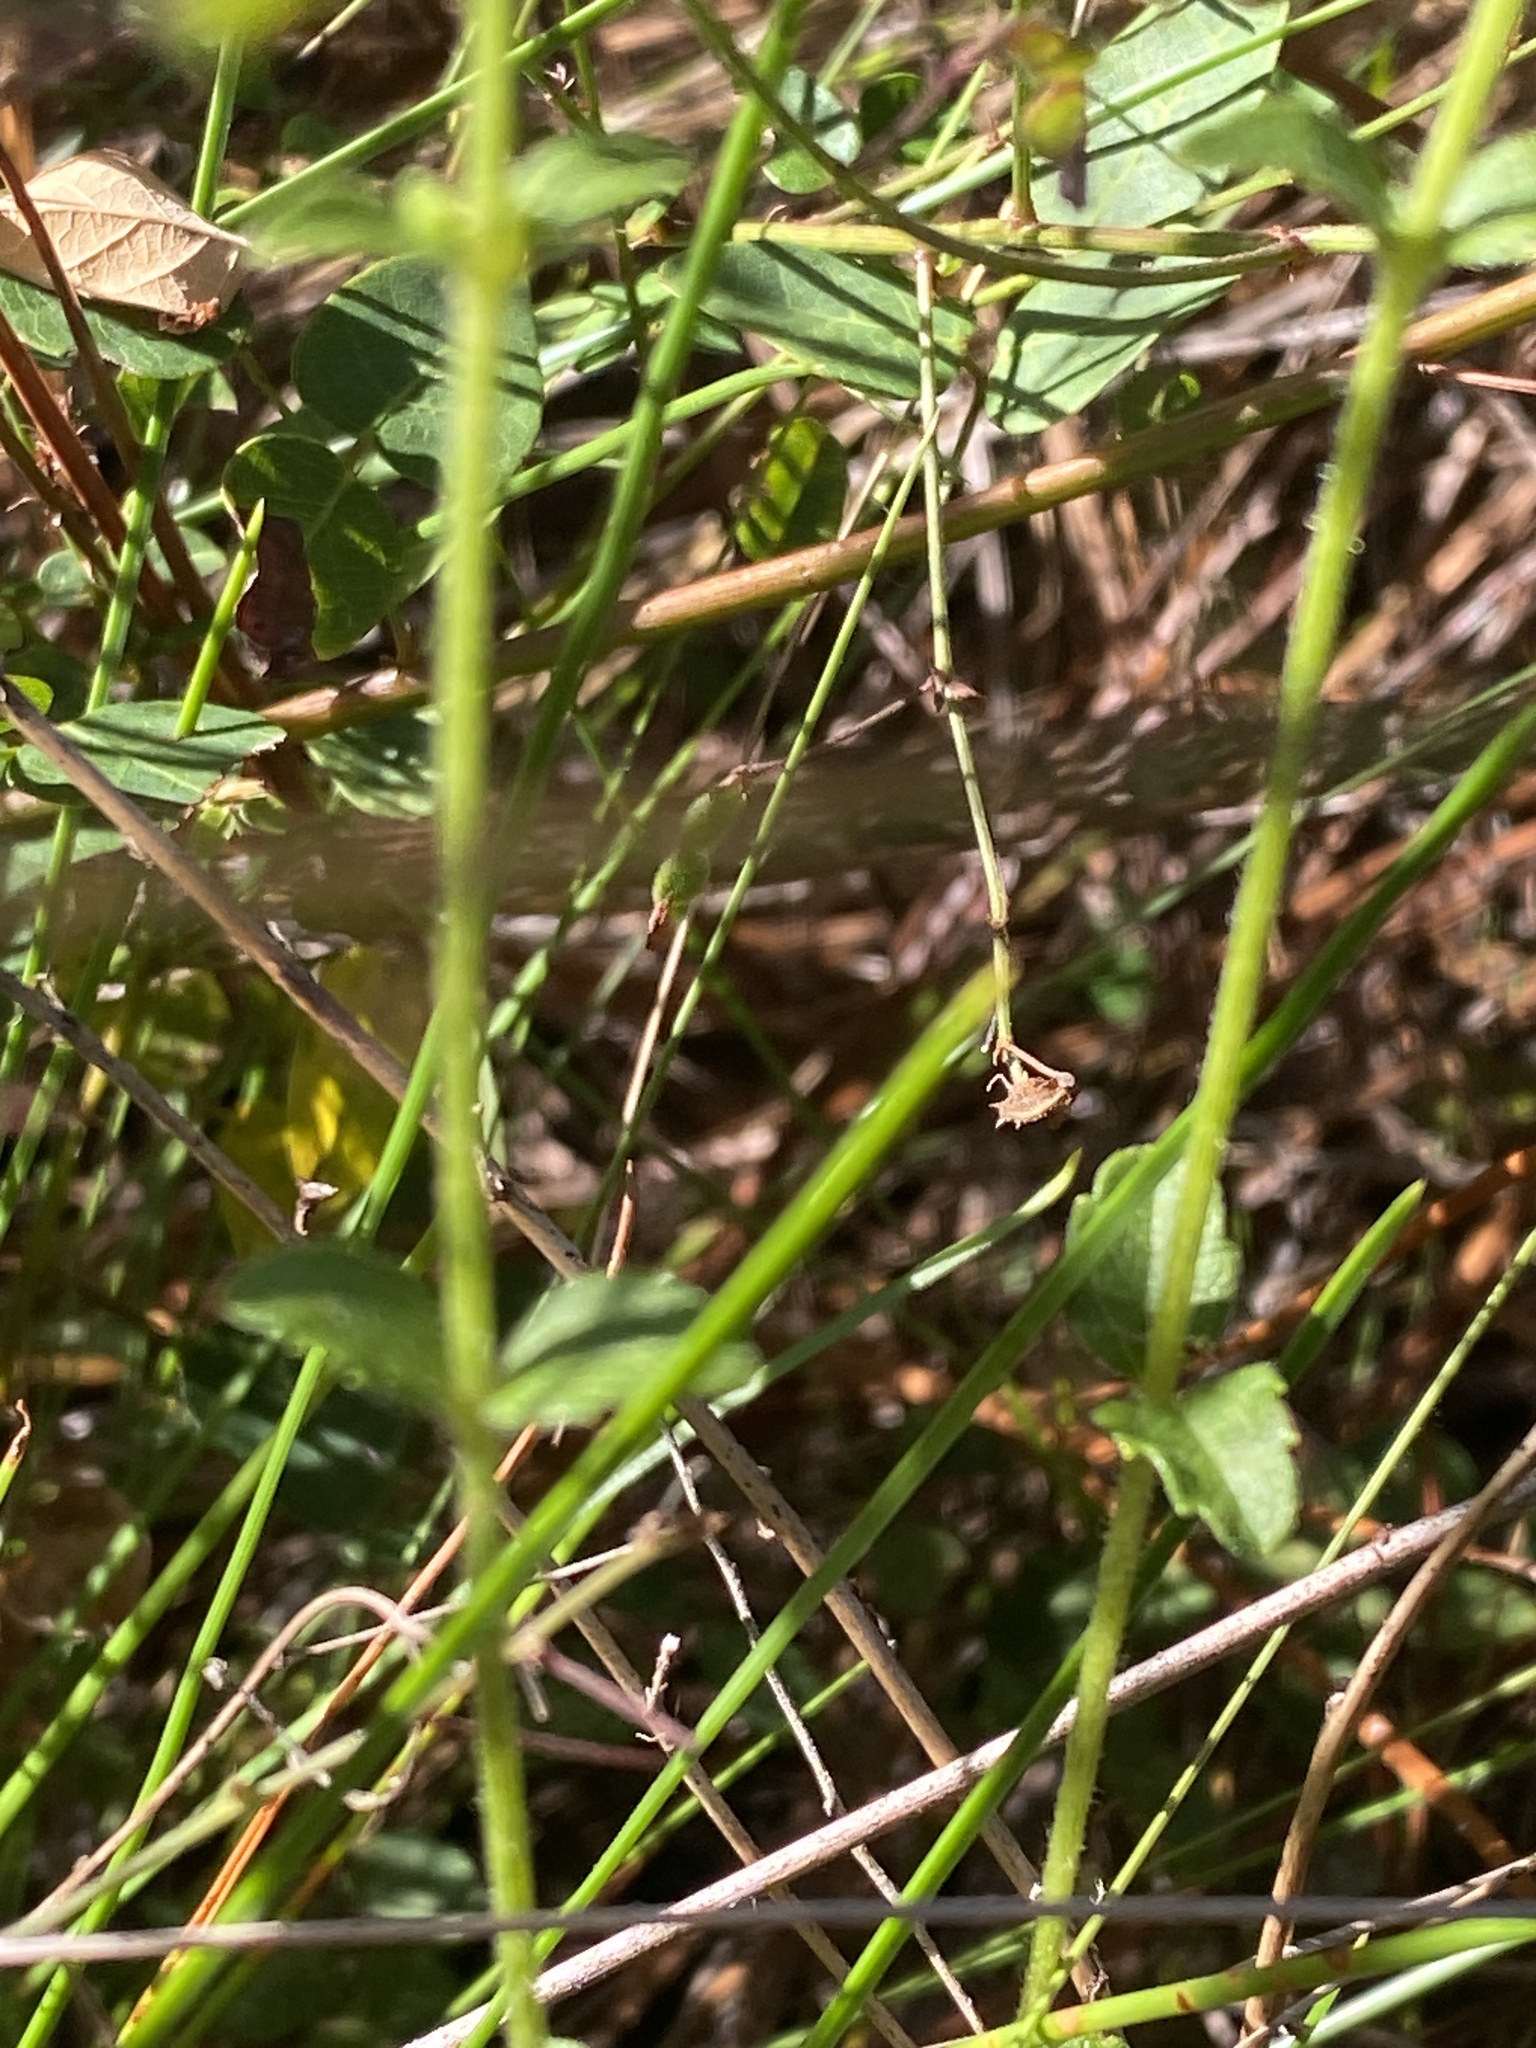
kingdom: Plantae
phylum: Tracheophyta
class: Magnoliopsida
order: Asterales
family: Asteraceae
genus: Ageratina
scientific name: Ageratina aromatica
